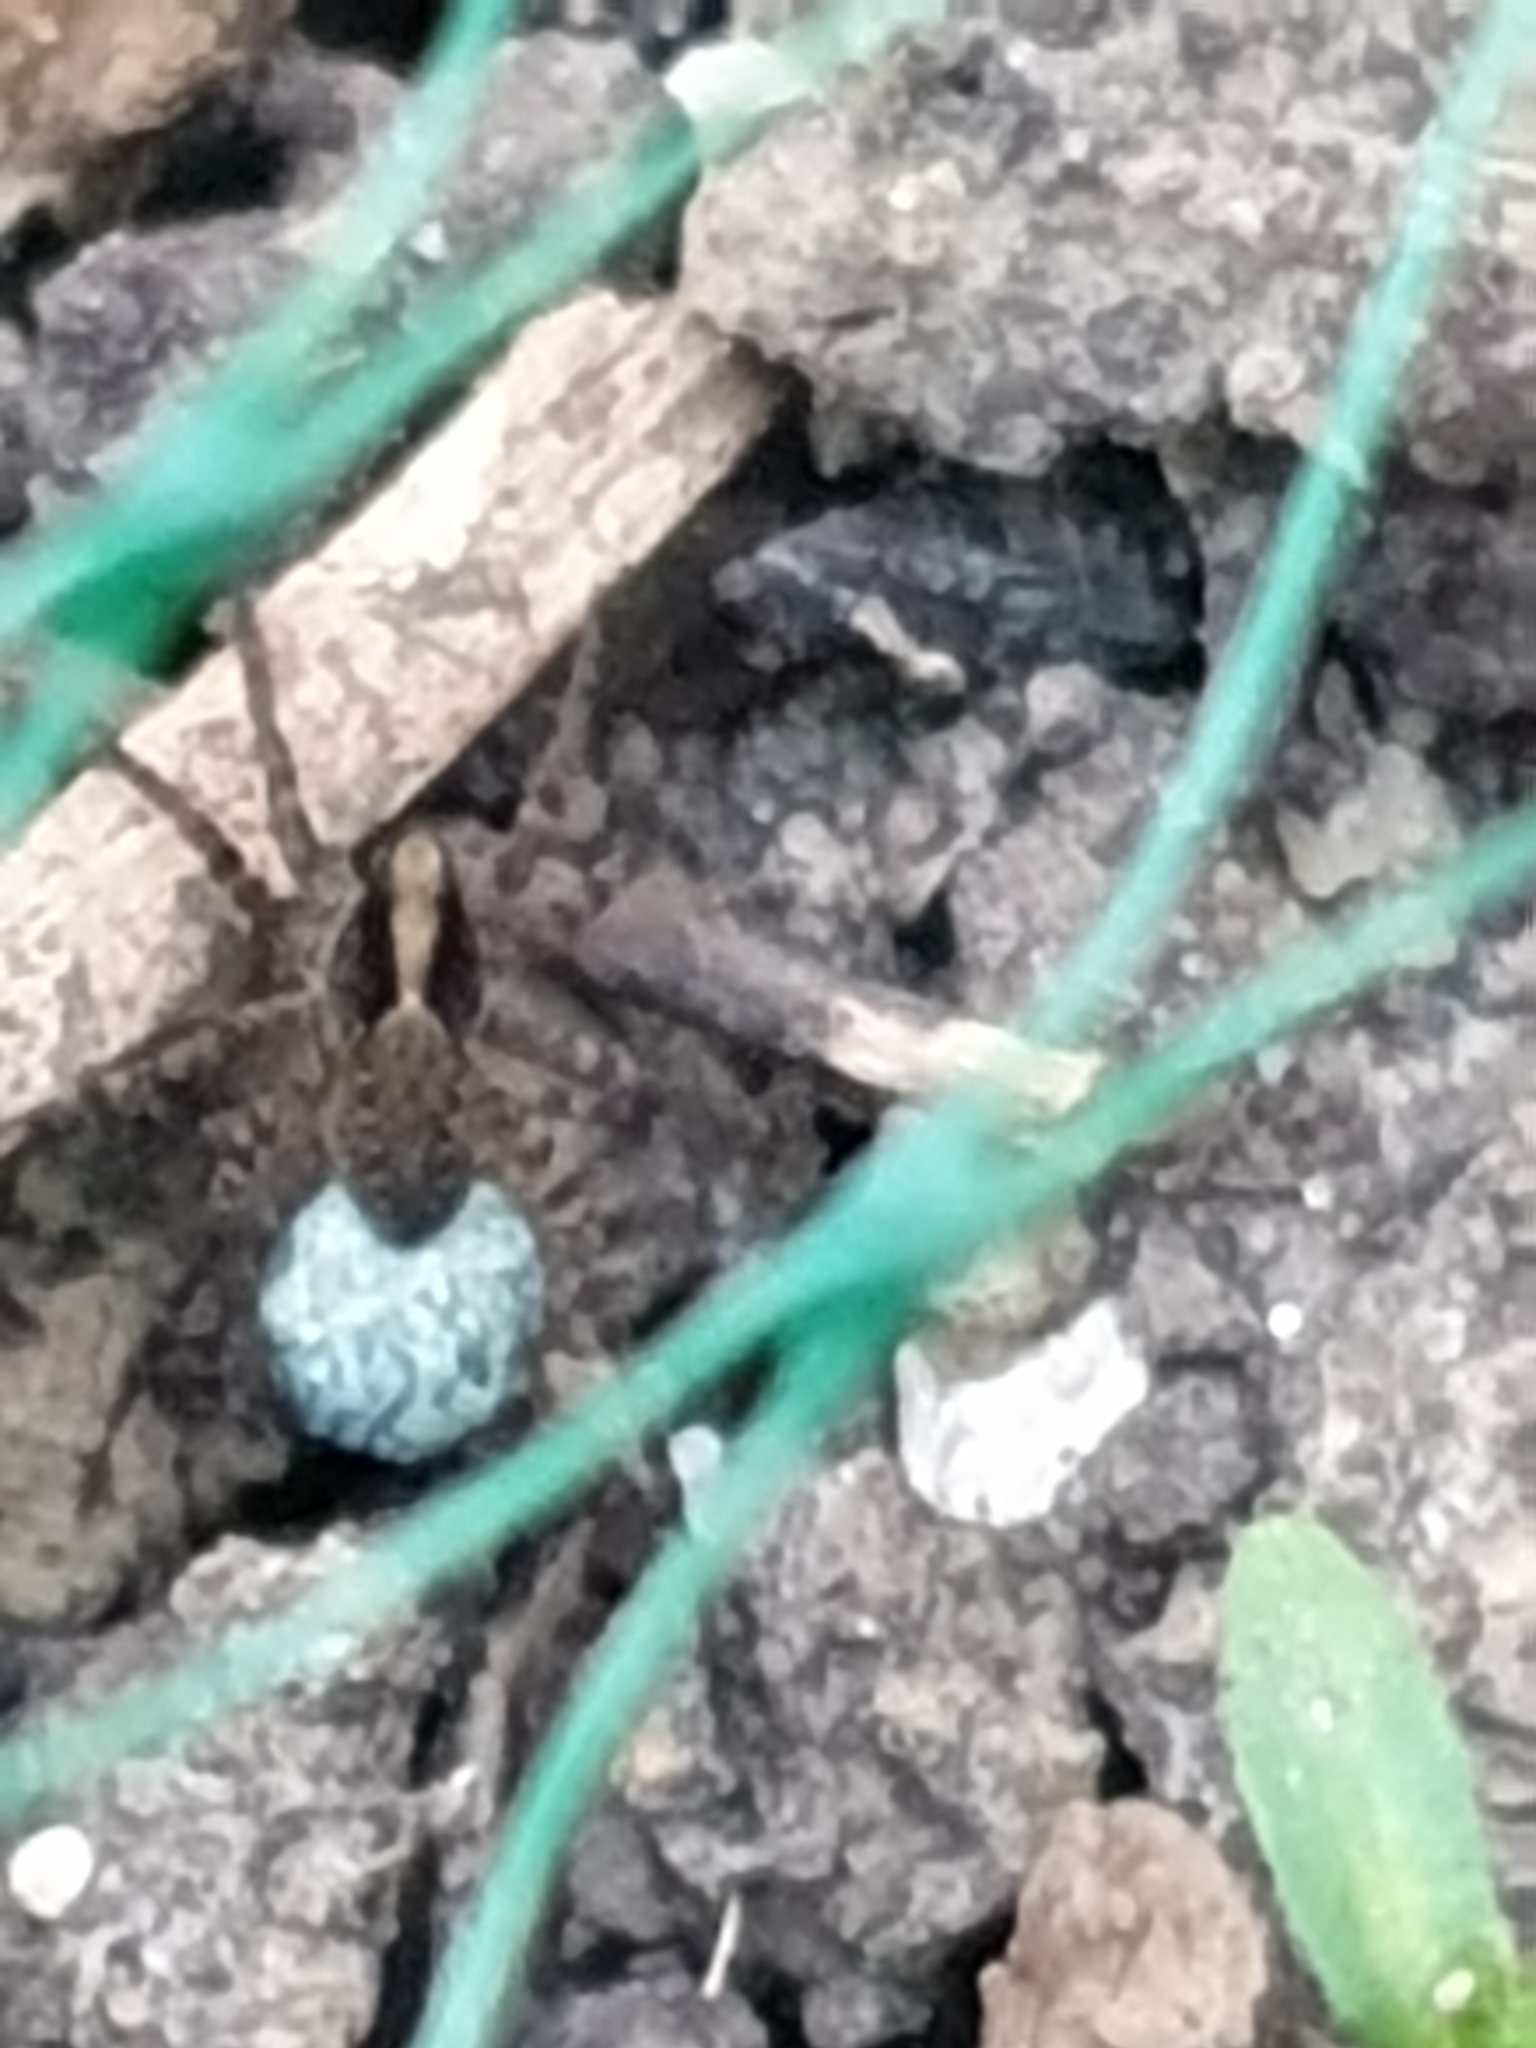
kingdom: Animalia
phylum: Arthropoda
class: Arachnida
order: Araneae
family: Lycosidae
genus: Pardosa
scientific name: Pardosa
